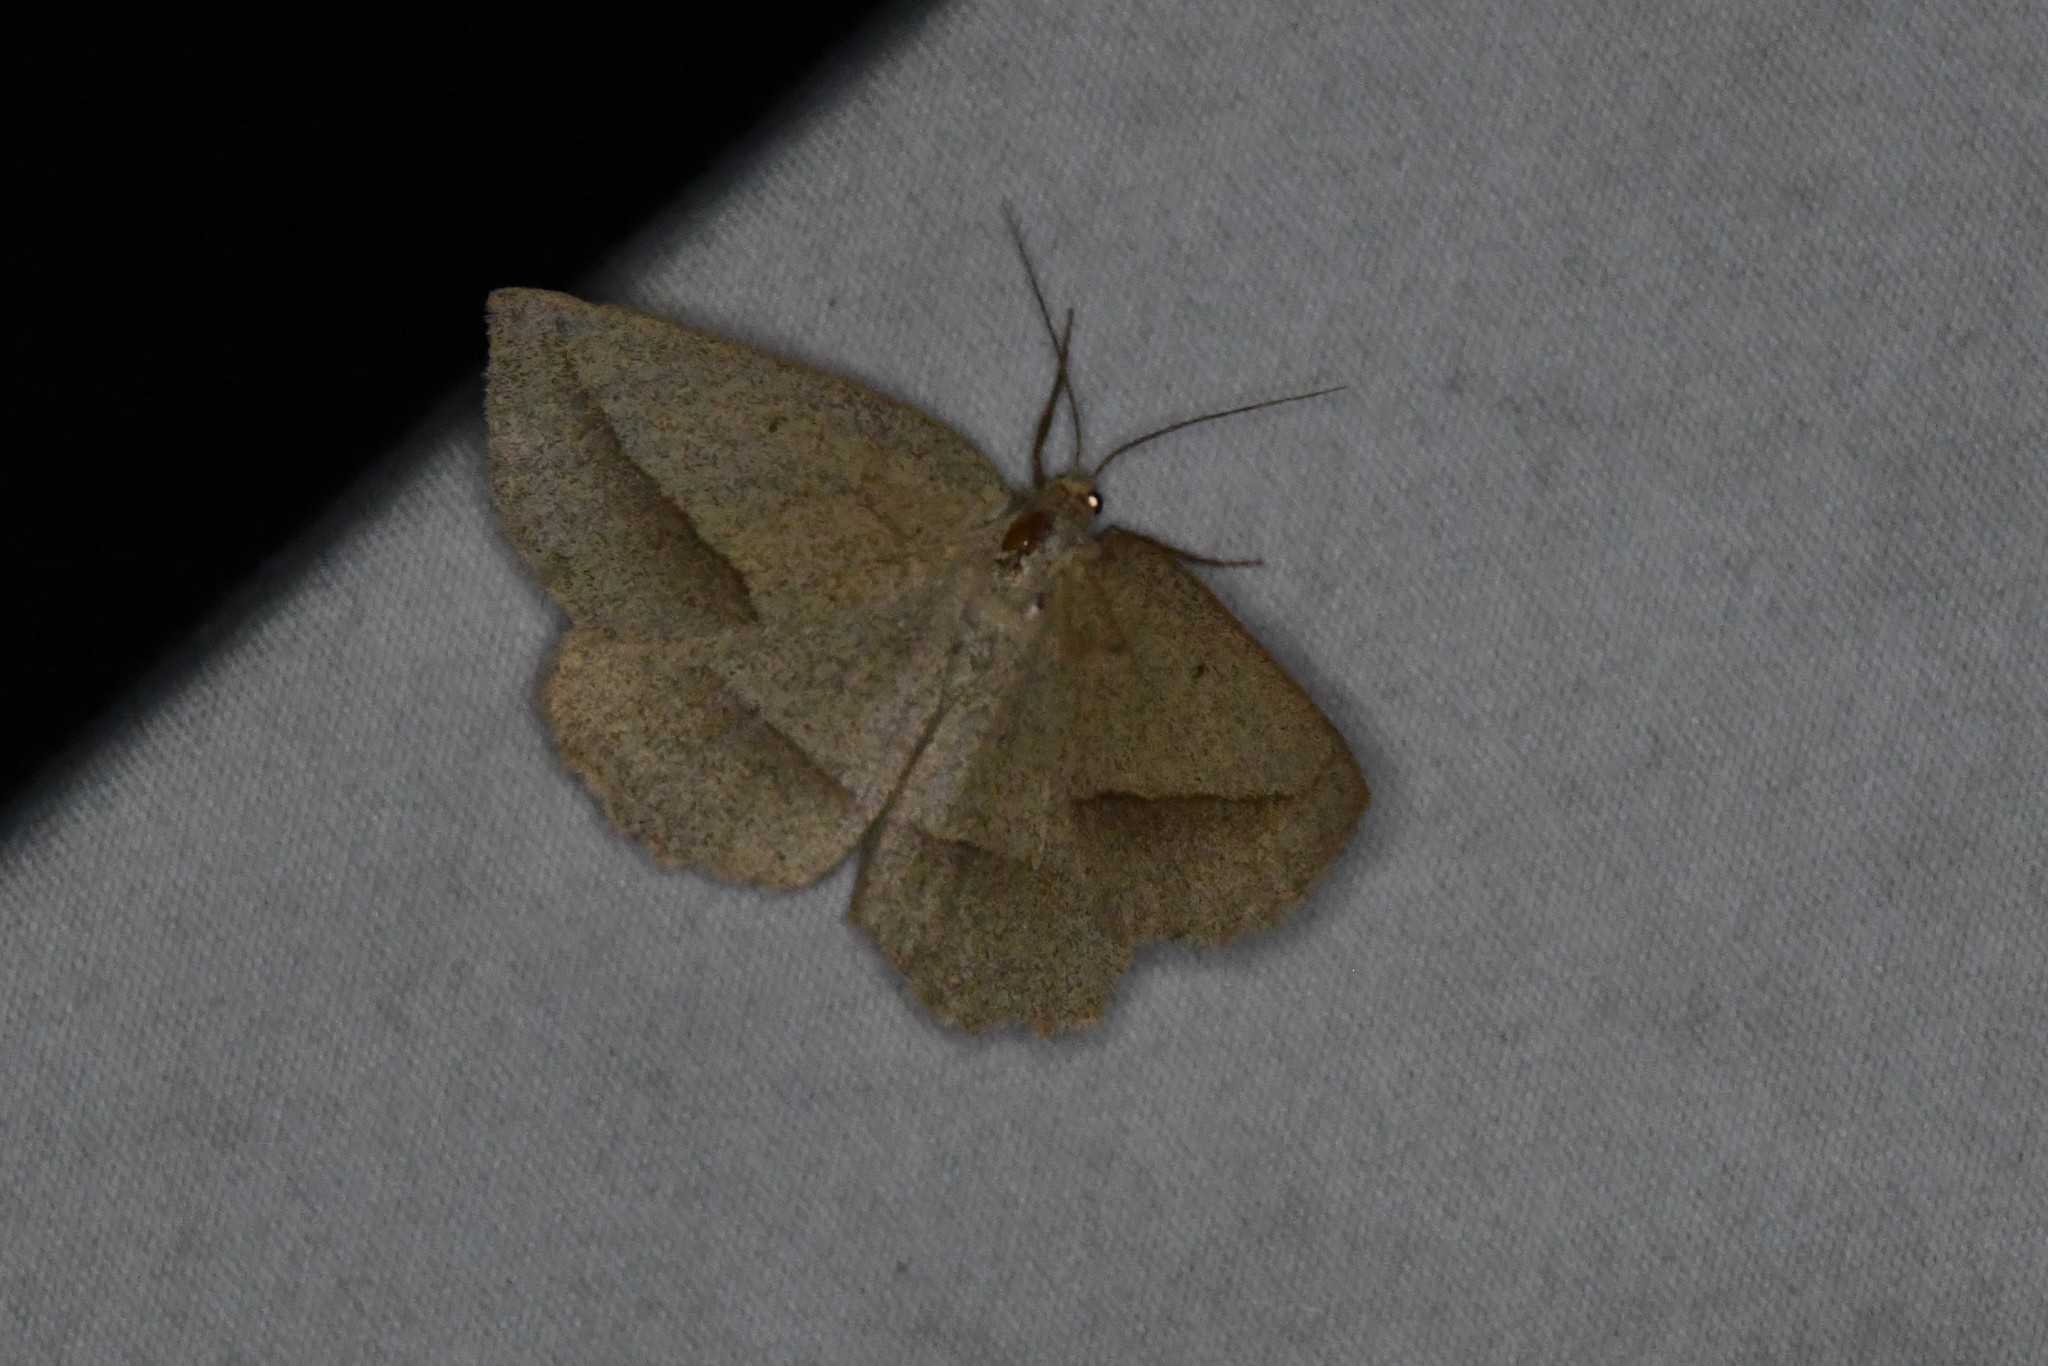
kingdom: Animalia
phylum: Arthropoda
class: Insecta
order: Lepidoptera
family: Geometridae
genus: Euchlaena
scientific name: Euchlaena irraria
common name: Least-marked euchlaena
